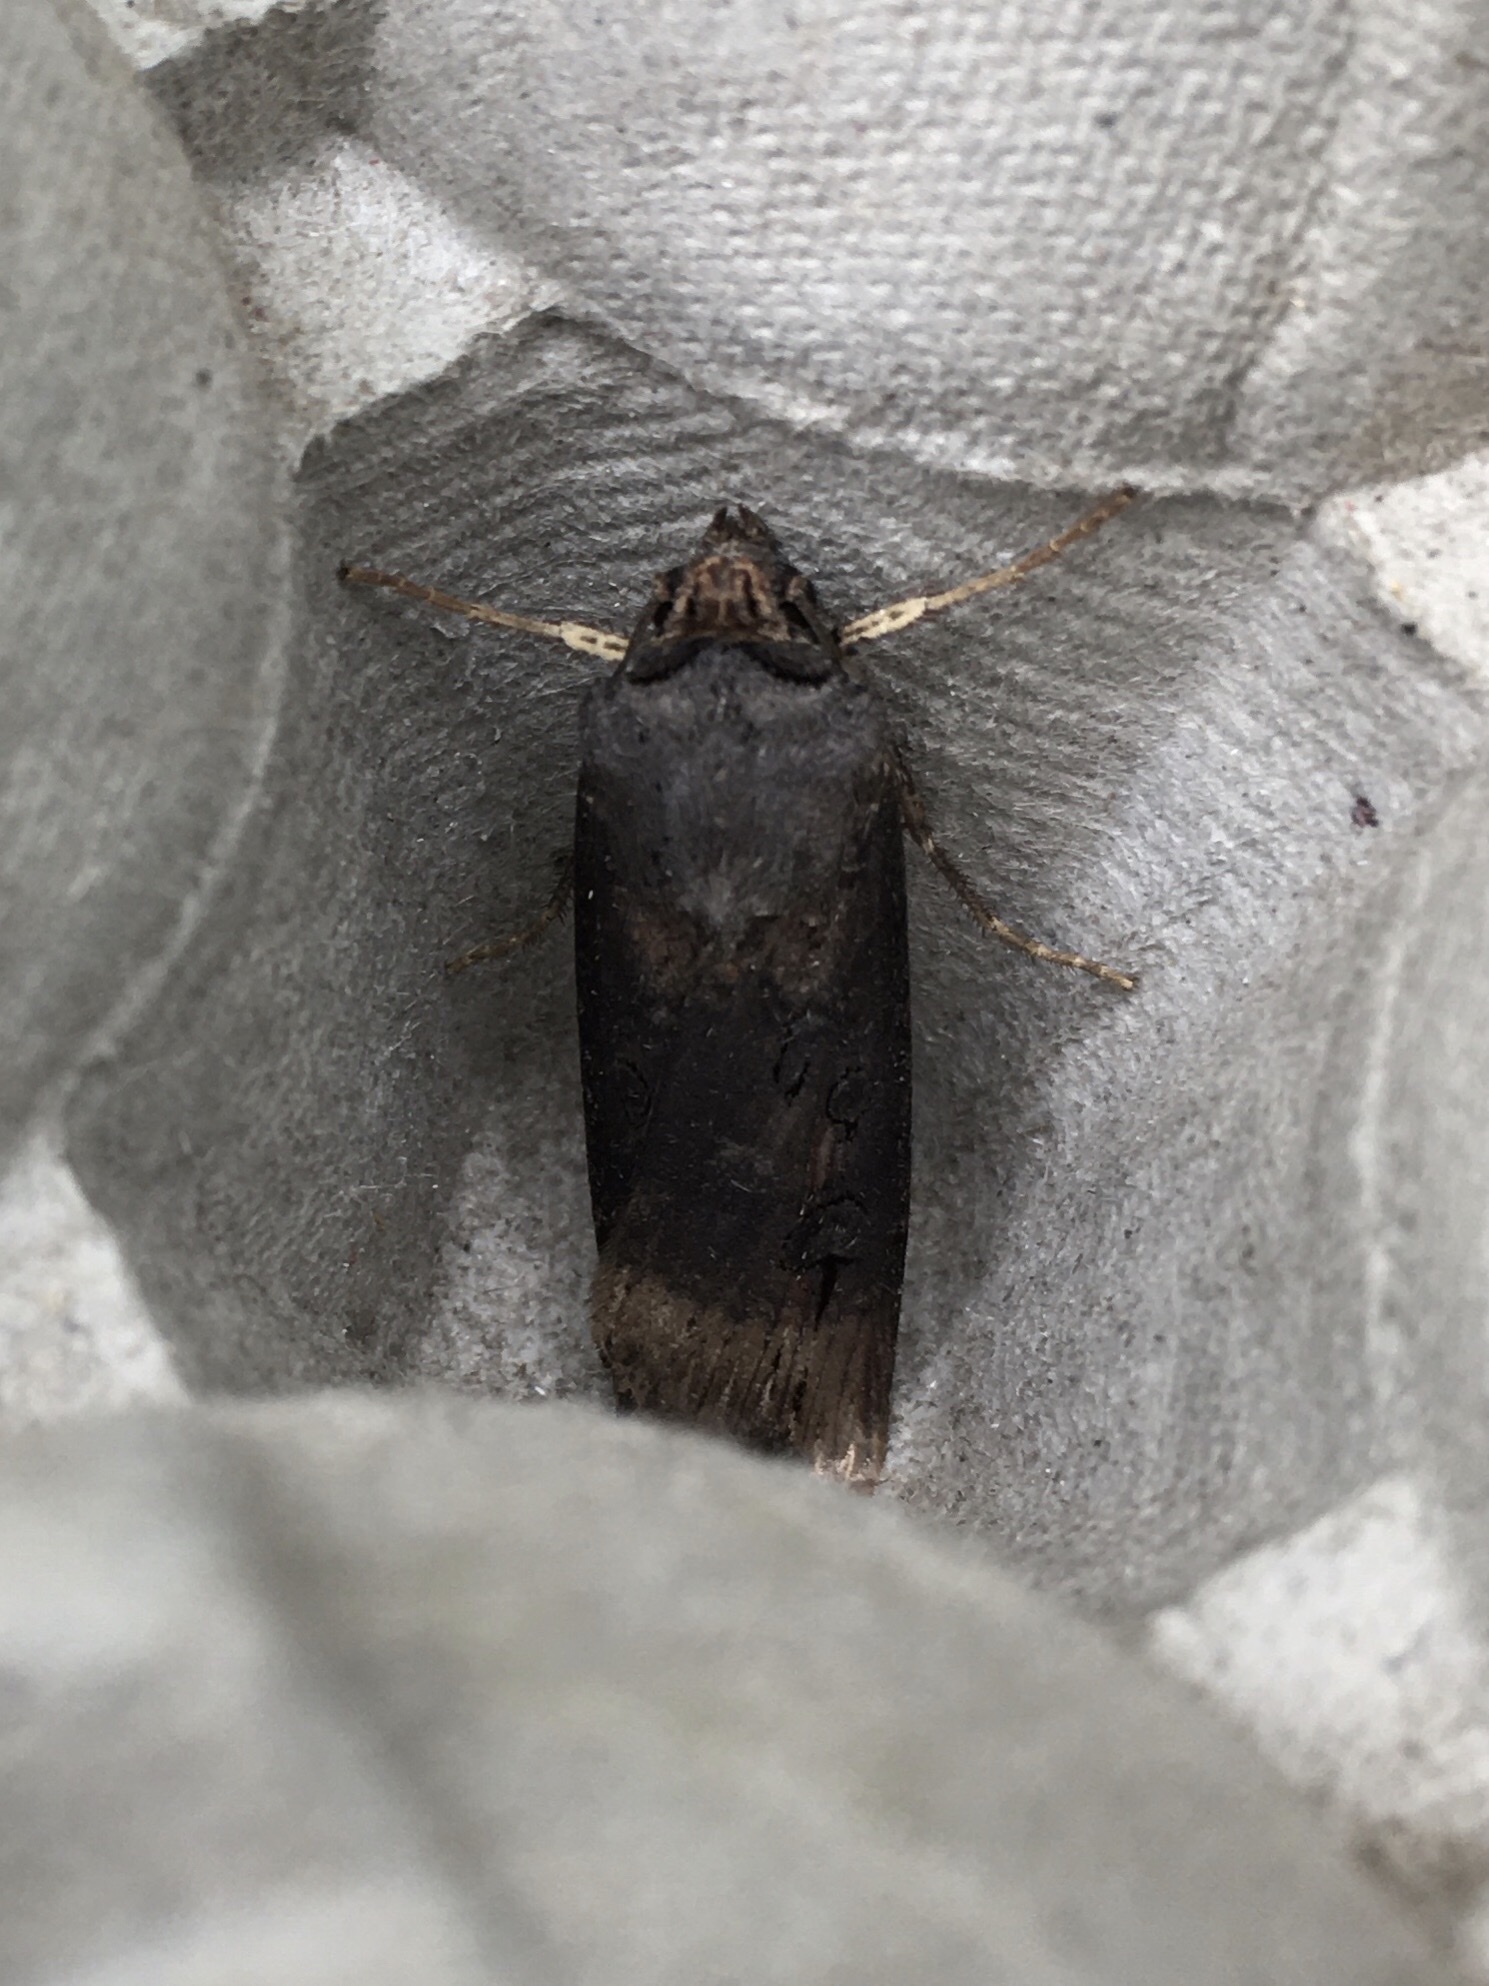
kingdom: Animalia
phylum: Arthropoda
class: Insecta
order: Lepidoptera
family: Noctuidae
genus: Agrotis
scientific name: Agrotis ipsilon
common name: Dark sword-grass
